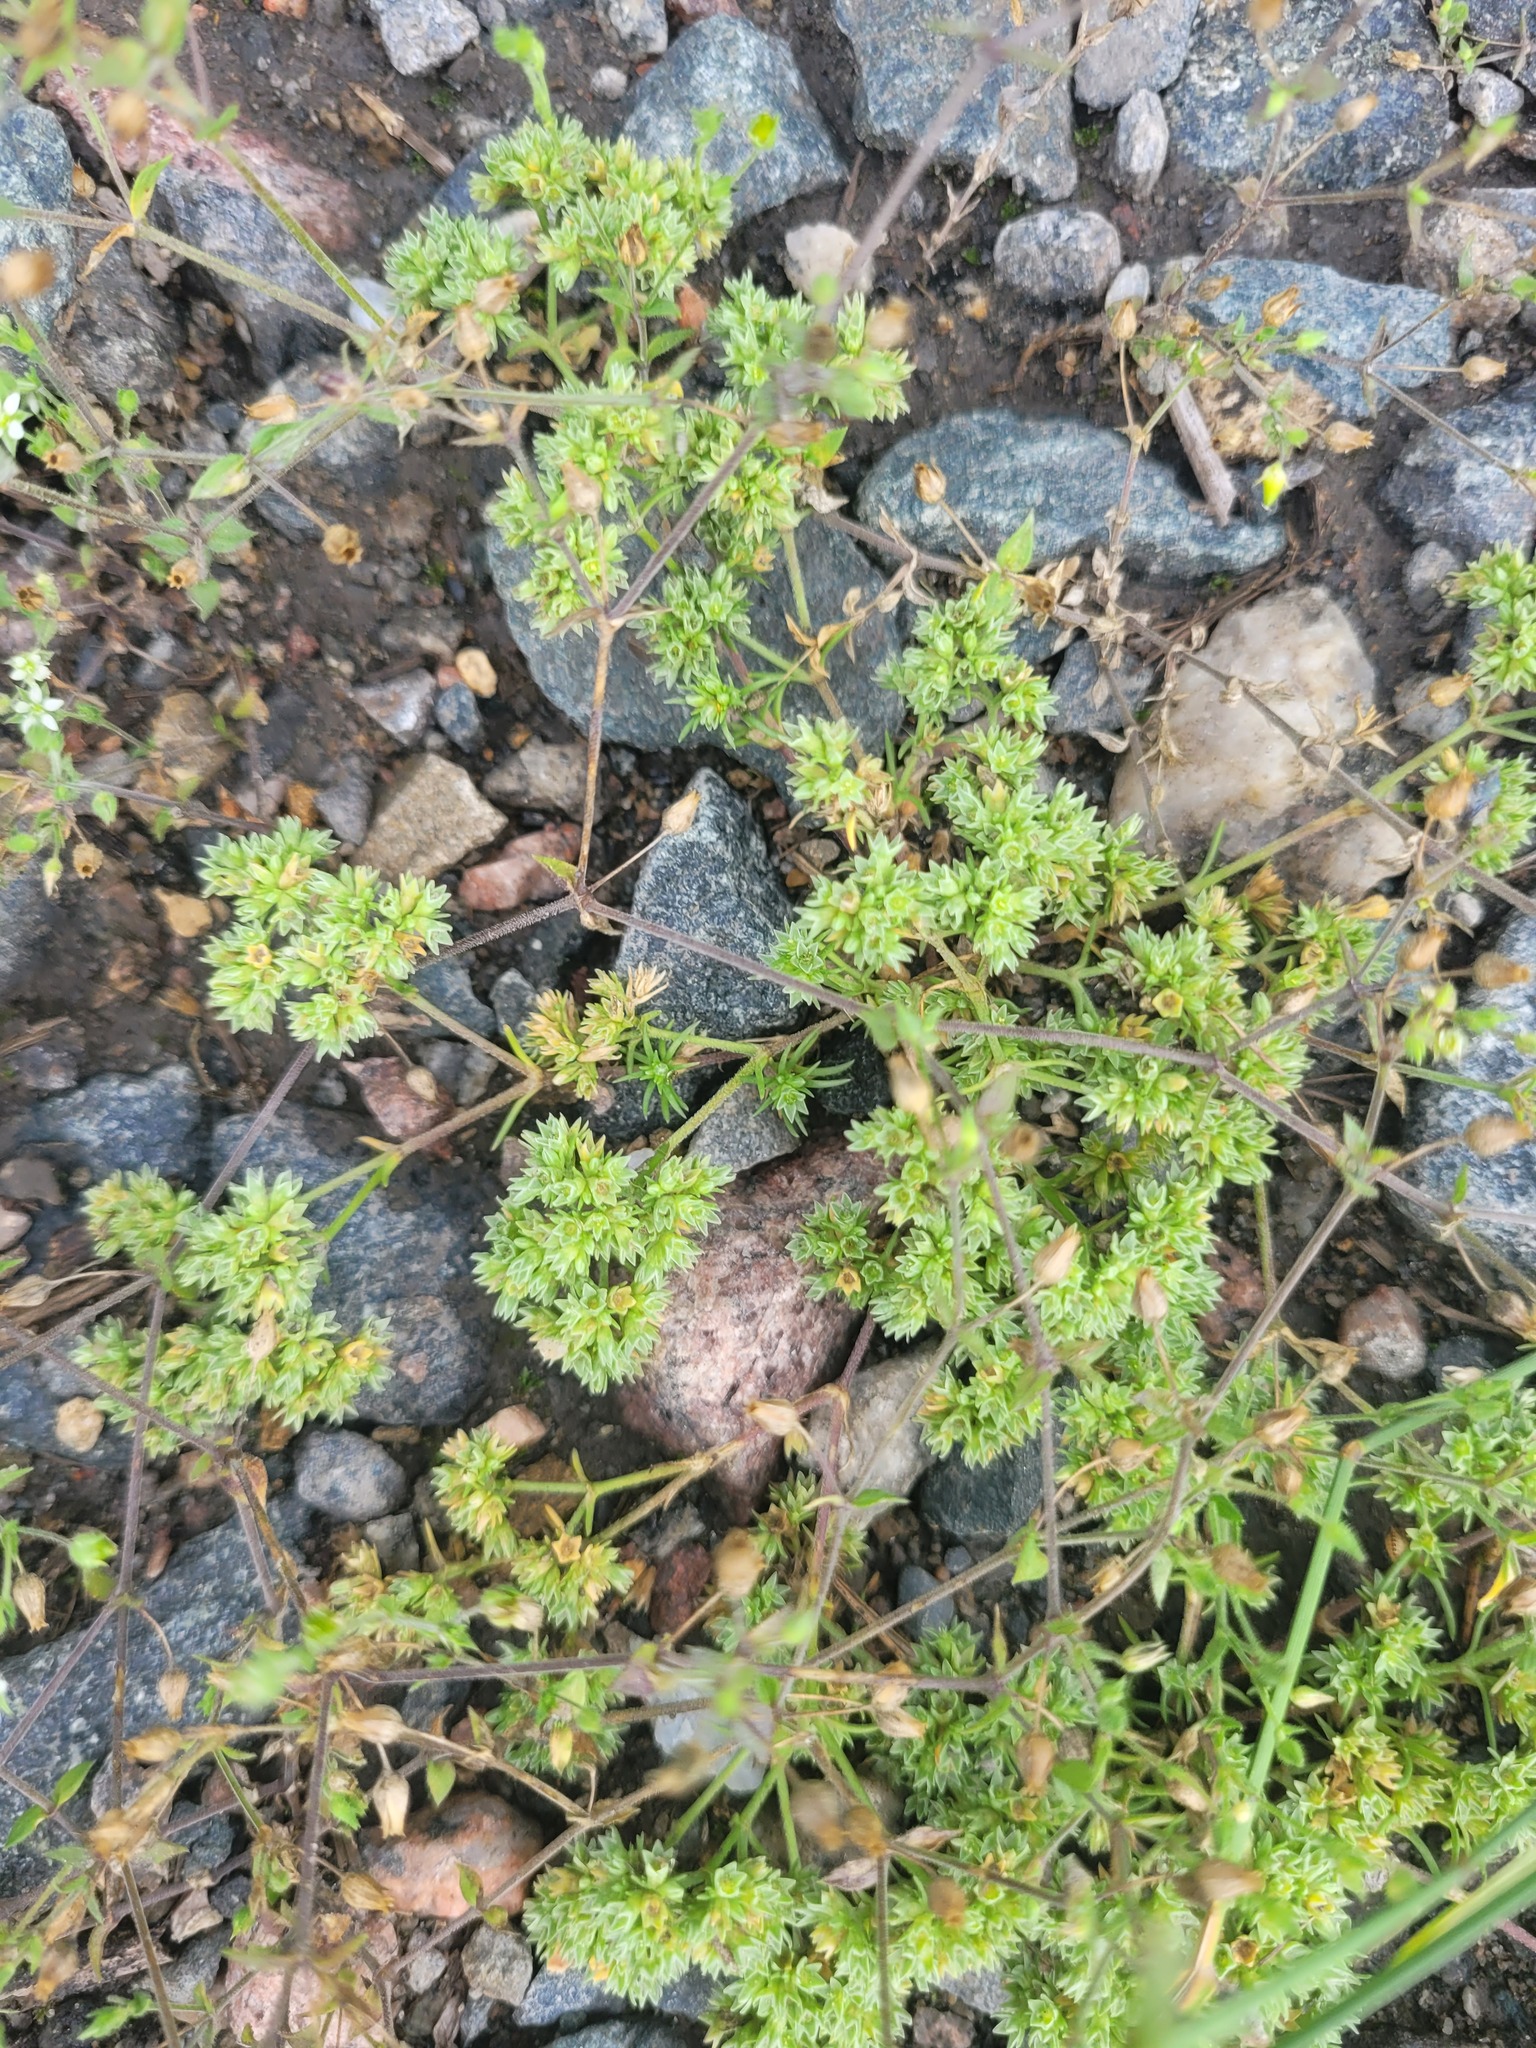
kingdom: Plantae
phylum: Tracheophyta
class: Magnoliopsida
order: Caryophyllales
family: Caryophyllaceae
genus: Scleranthus
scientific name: Scleranthus annuus
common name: Annual knawel
